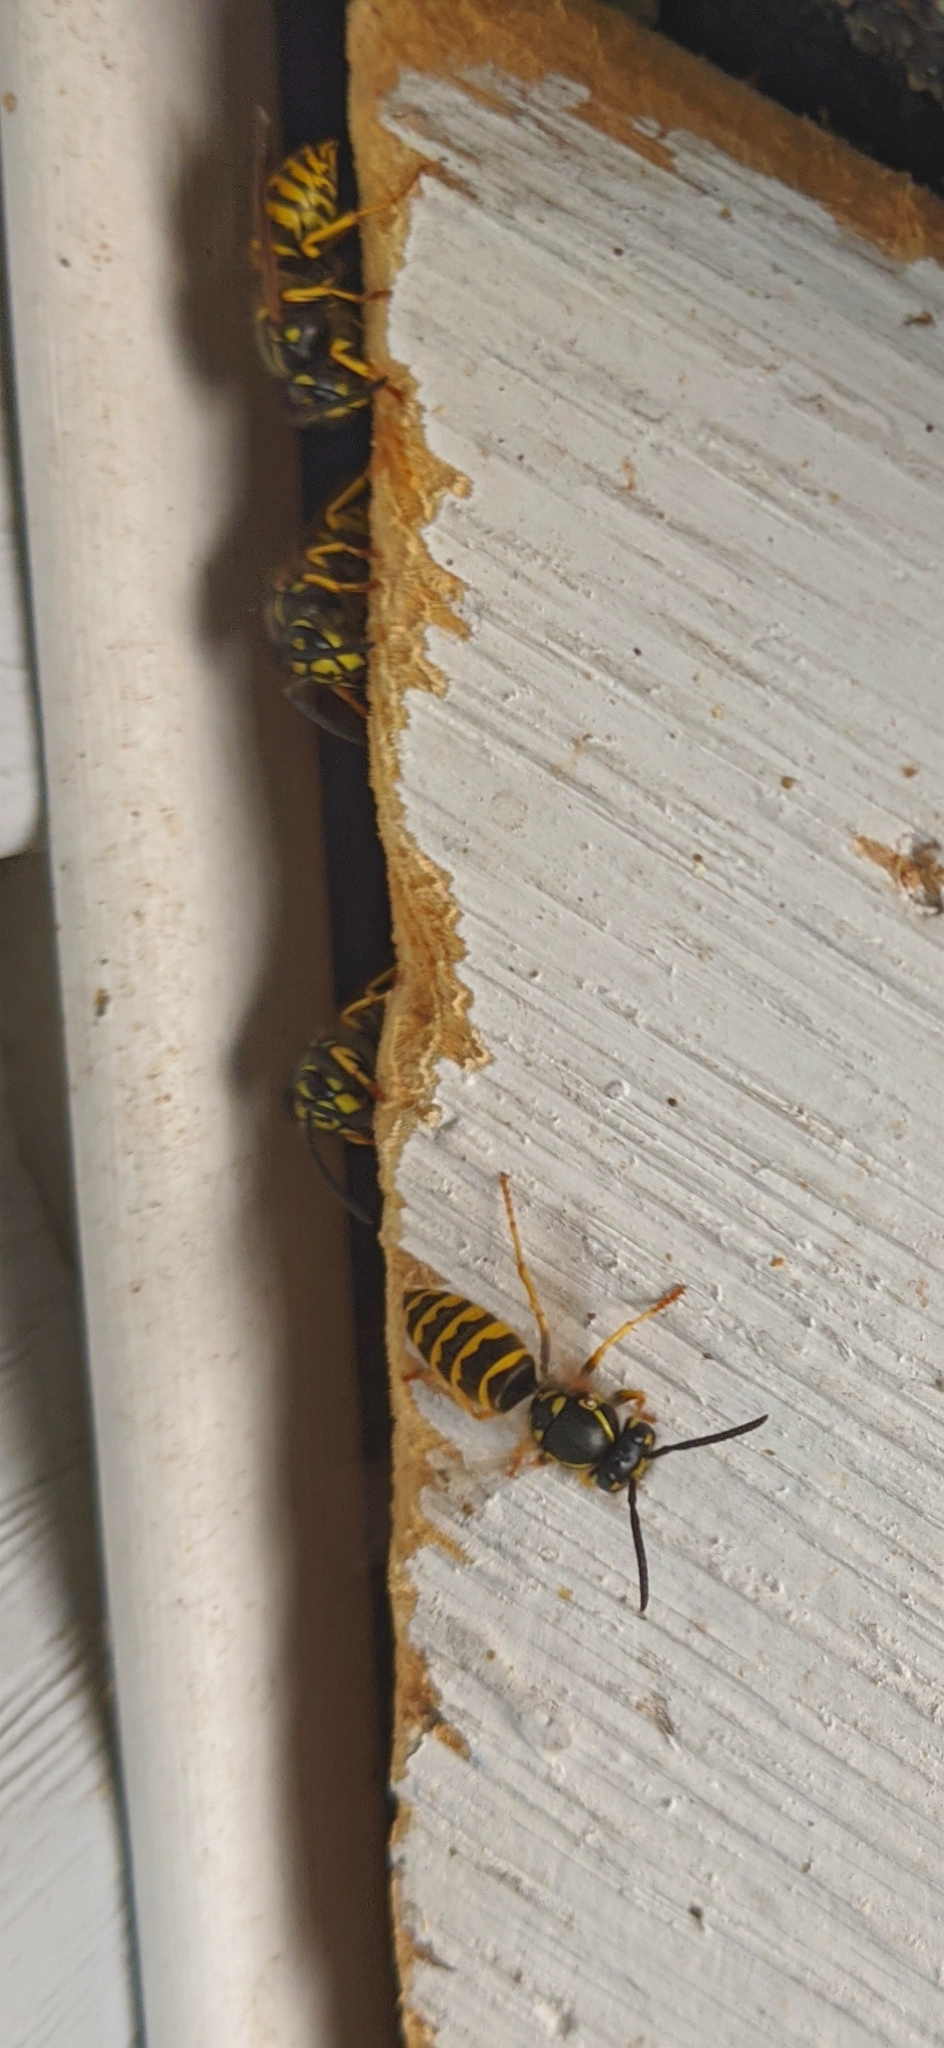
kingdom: Animalia
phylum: Arthropoda
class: Insecta
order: Hymenoptera
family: Vespidae
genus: Vespula
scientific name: Vespula alascensis
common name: Alaska yellowjacket
